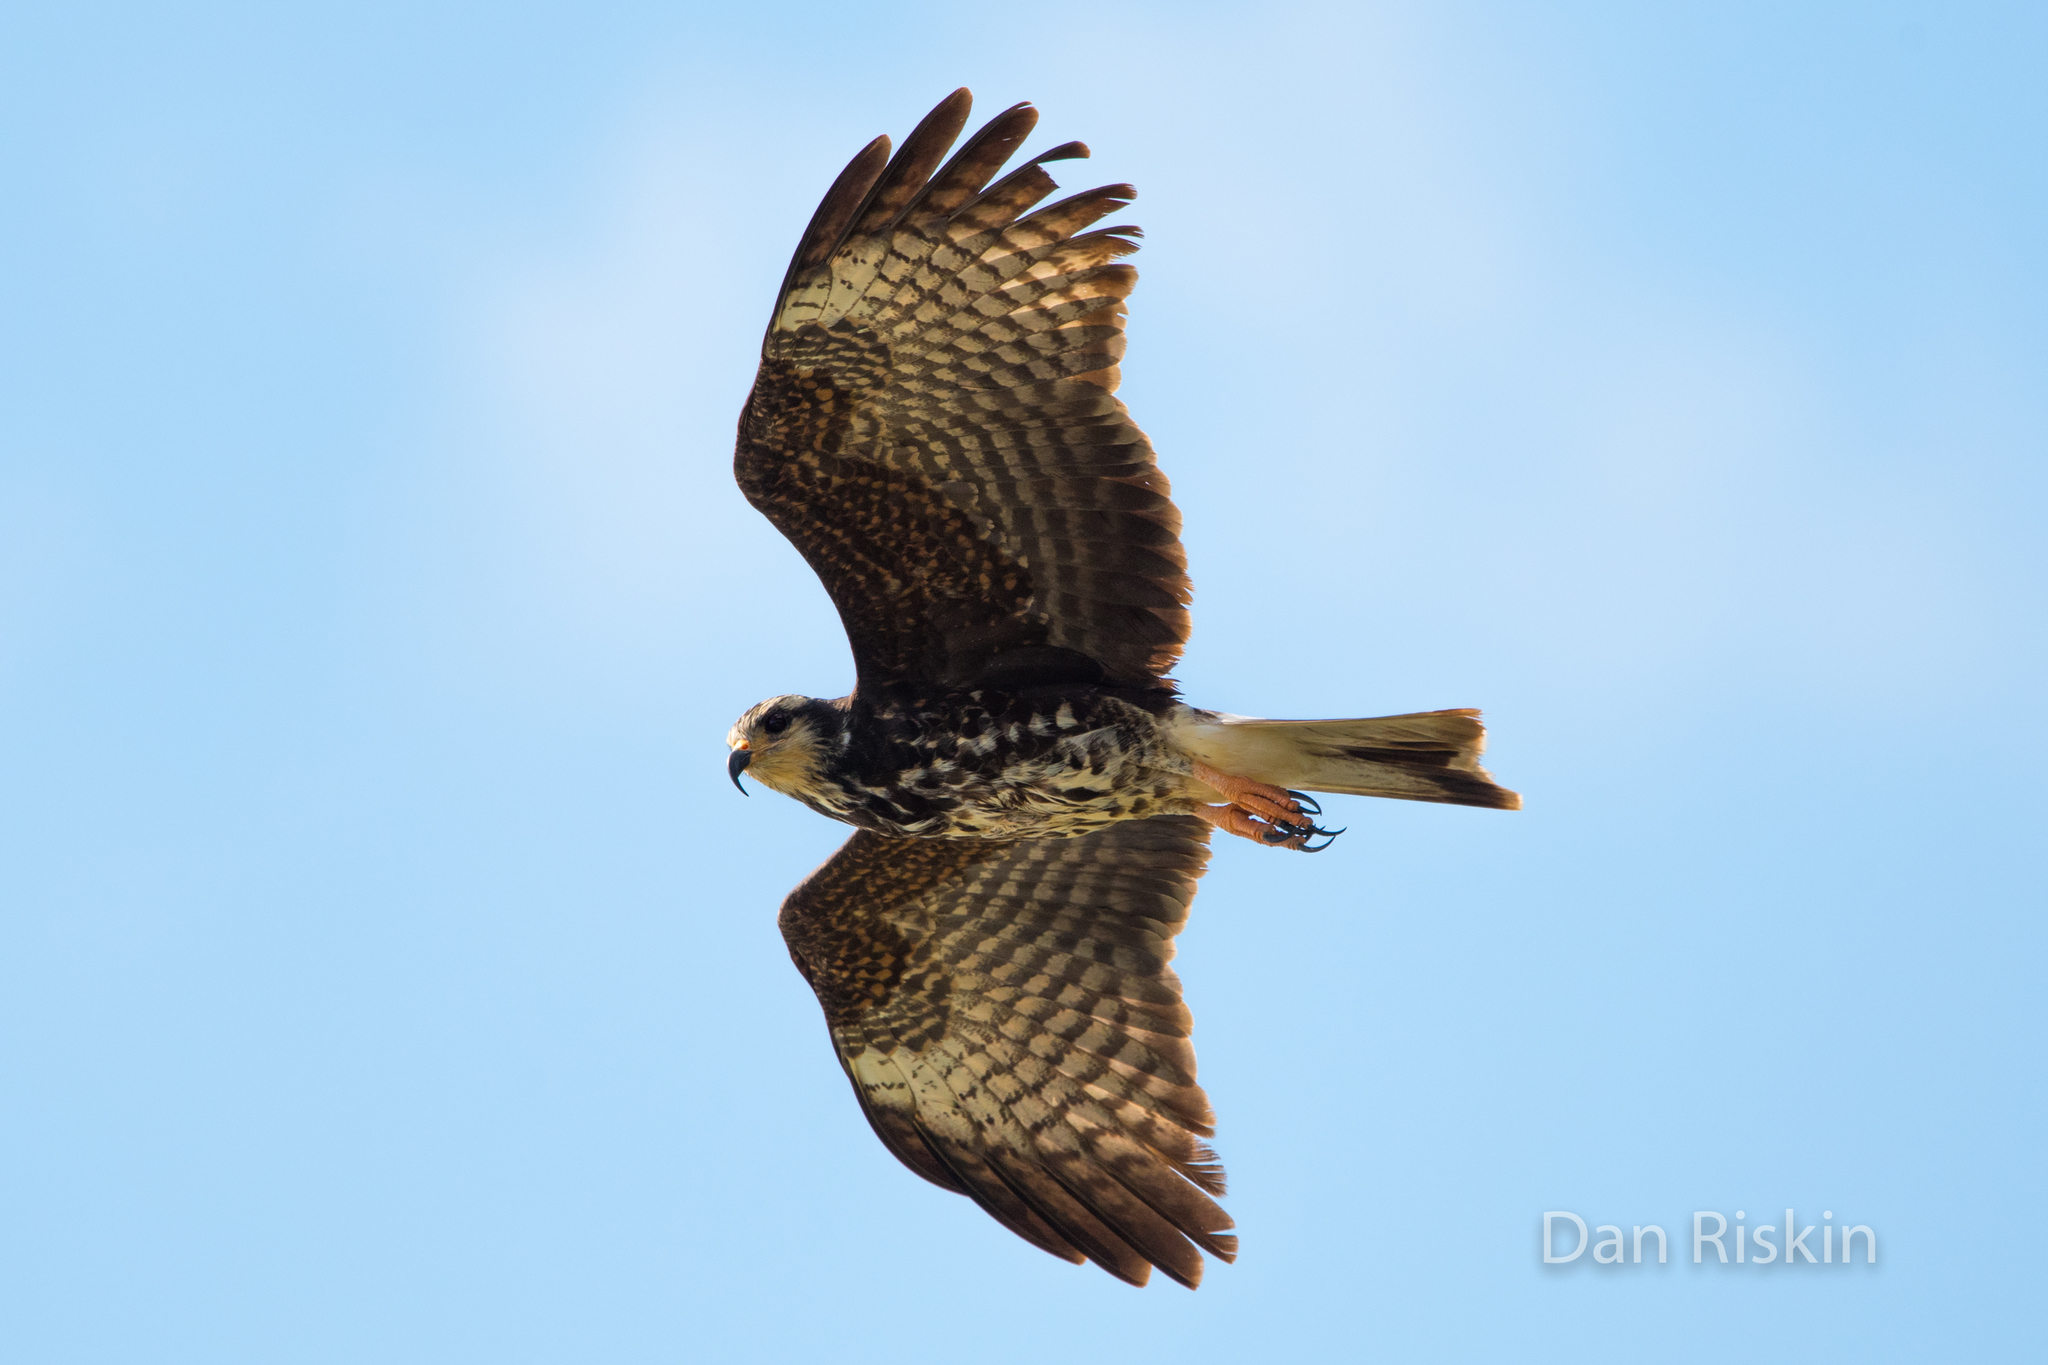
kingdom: Animalia
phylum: Chordata
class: Aves
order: Accipitriformes
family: Accipitridae
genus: Rostrhamus
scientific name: Rostrhamus sociabilis
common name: Snail kite
